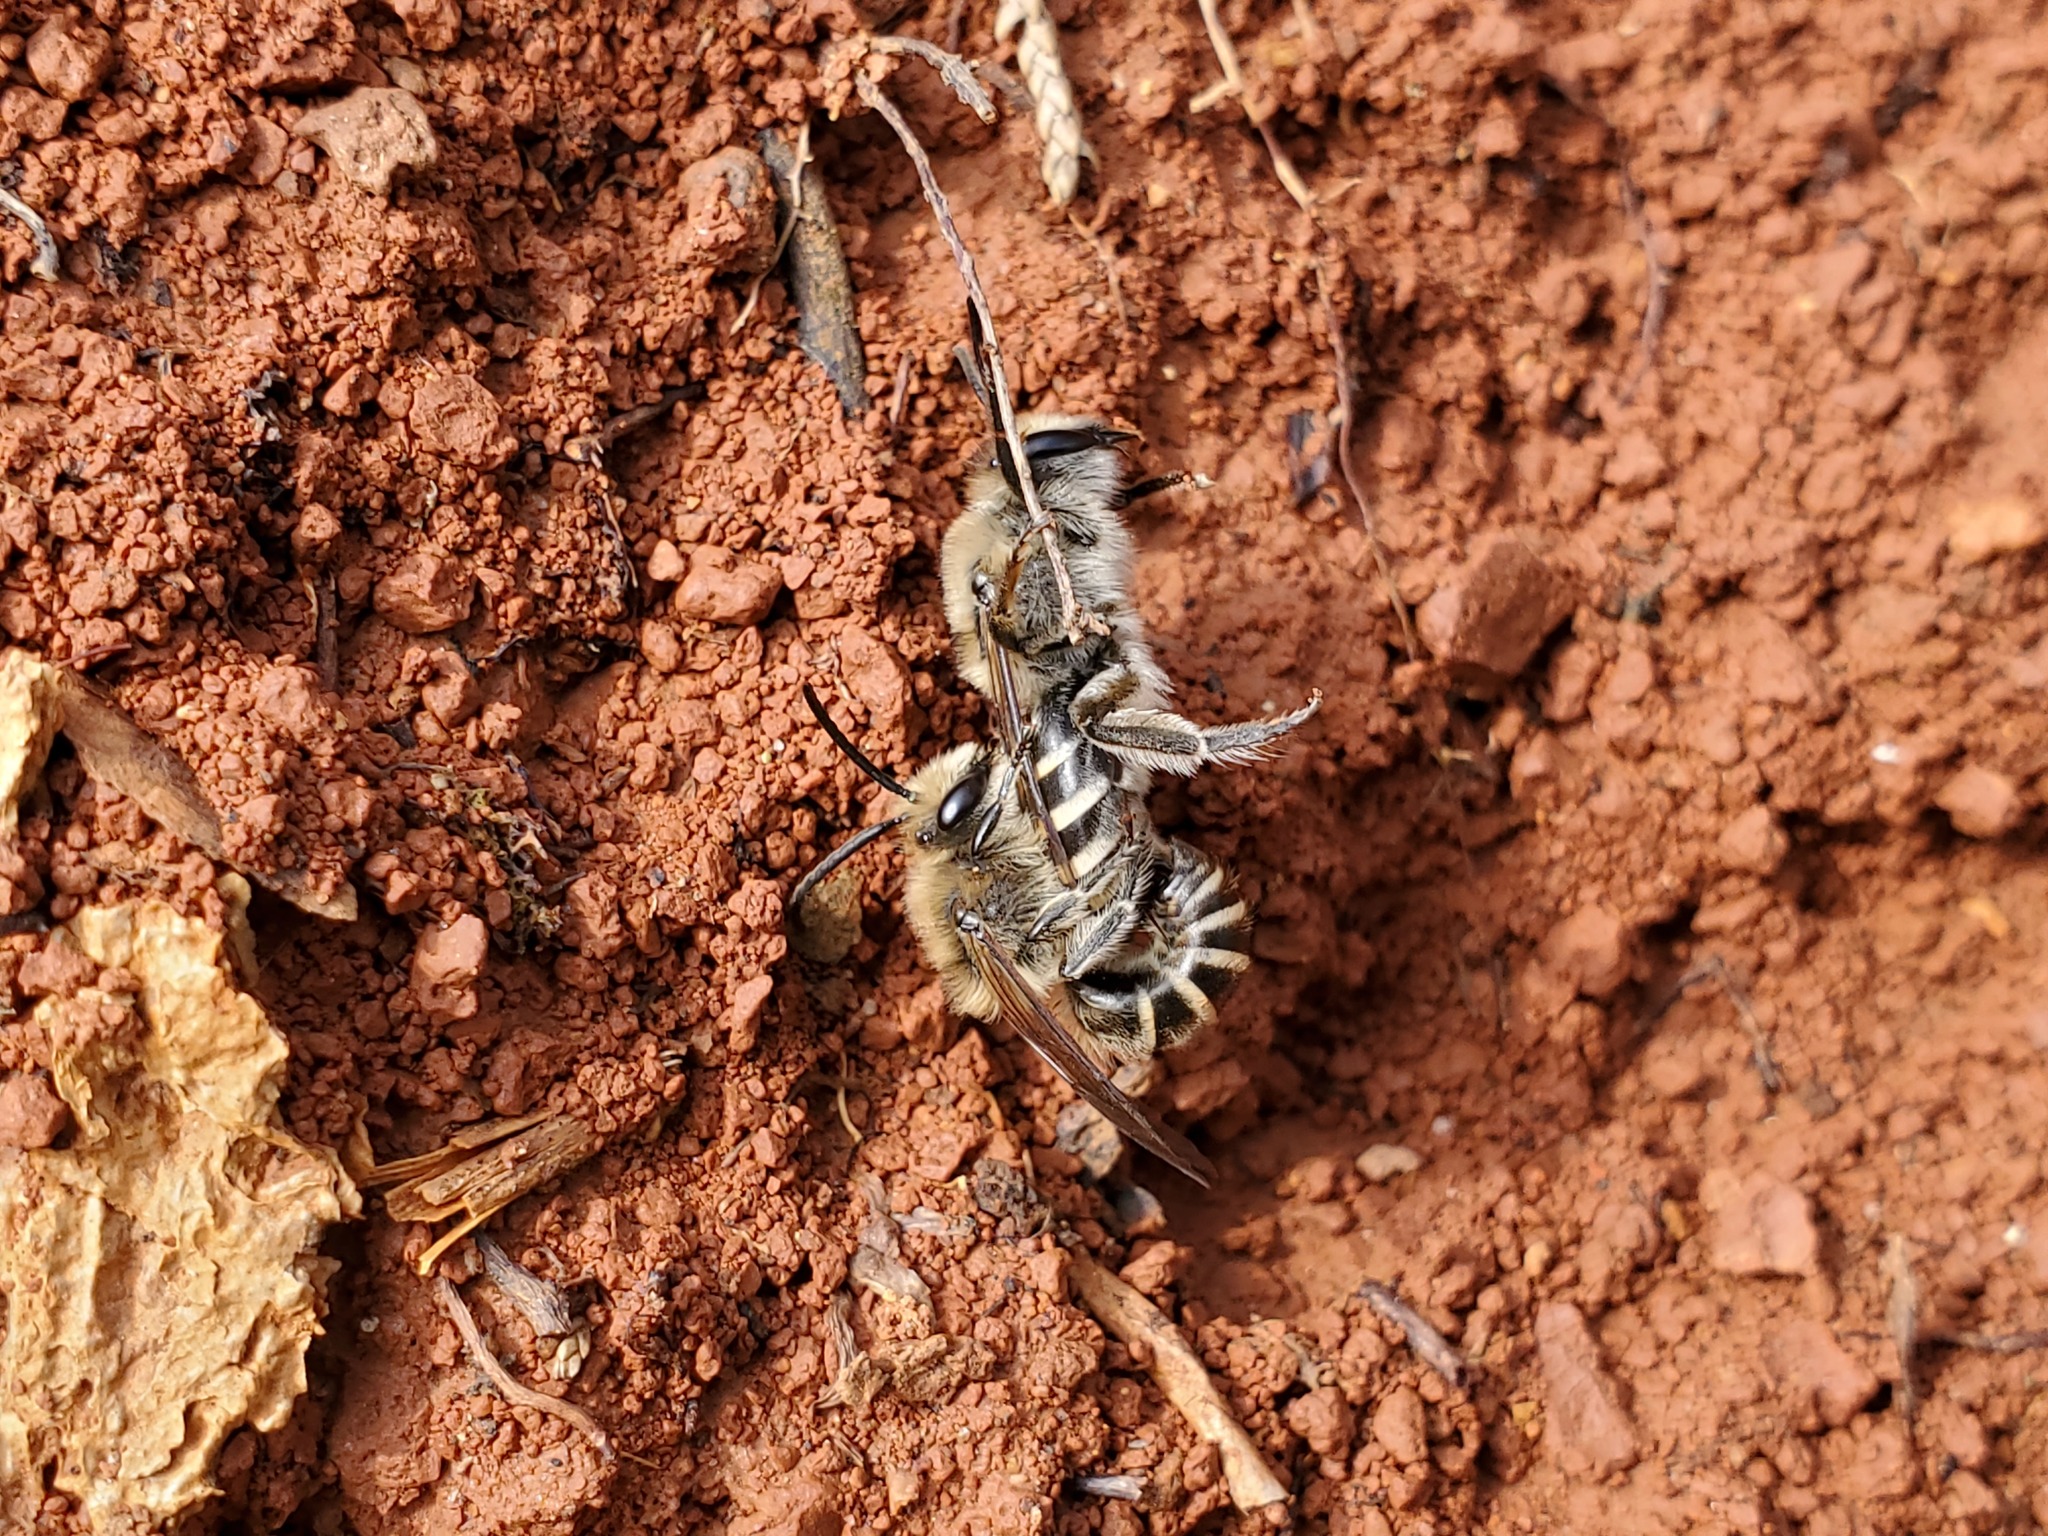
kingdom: Animalia
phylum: Arthropoda
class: Insecta
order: Hymenoptera
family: Colletidae
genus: Colletes
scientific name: Colletes inaequalis
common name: Unequal cellophane bee
